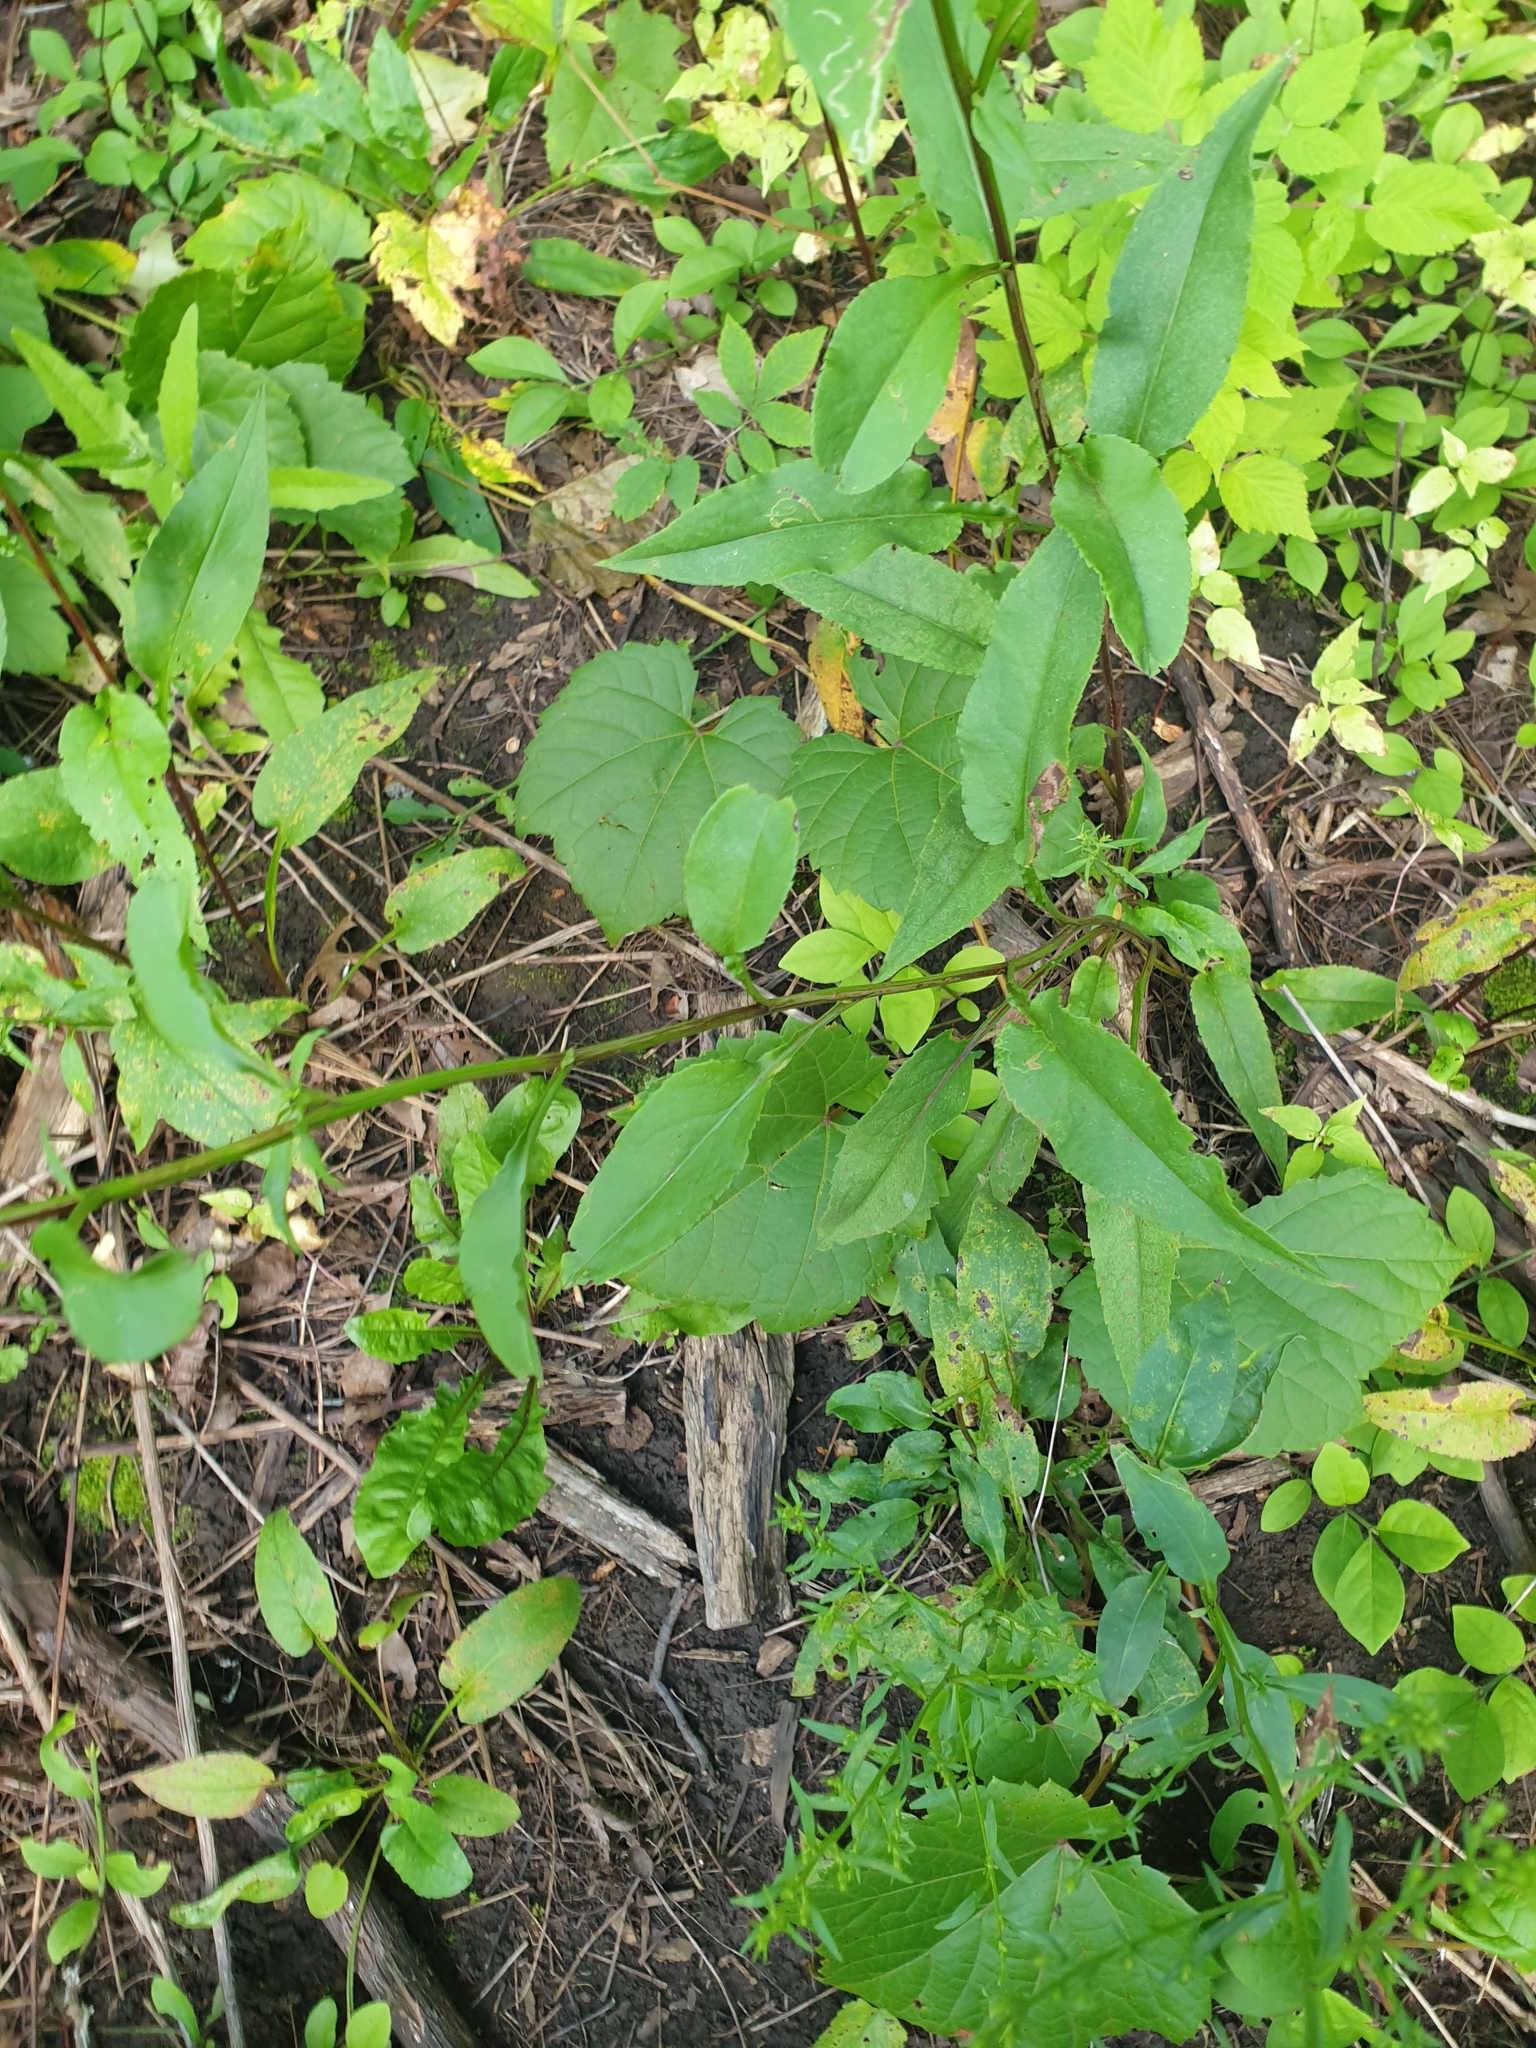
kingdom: Plantae
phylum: Tracheophyta
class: Magnoliopsida
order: Asterales
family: Asteraceae
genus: Symphyotrichum
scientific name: Symphyotrichum urophyllum
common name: Arrow-leaved aster
